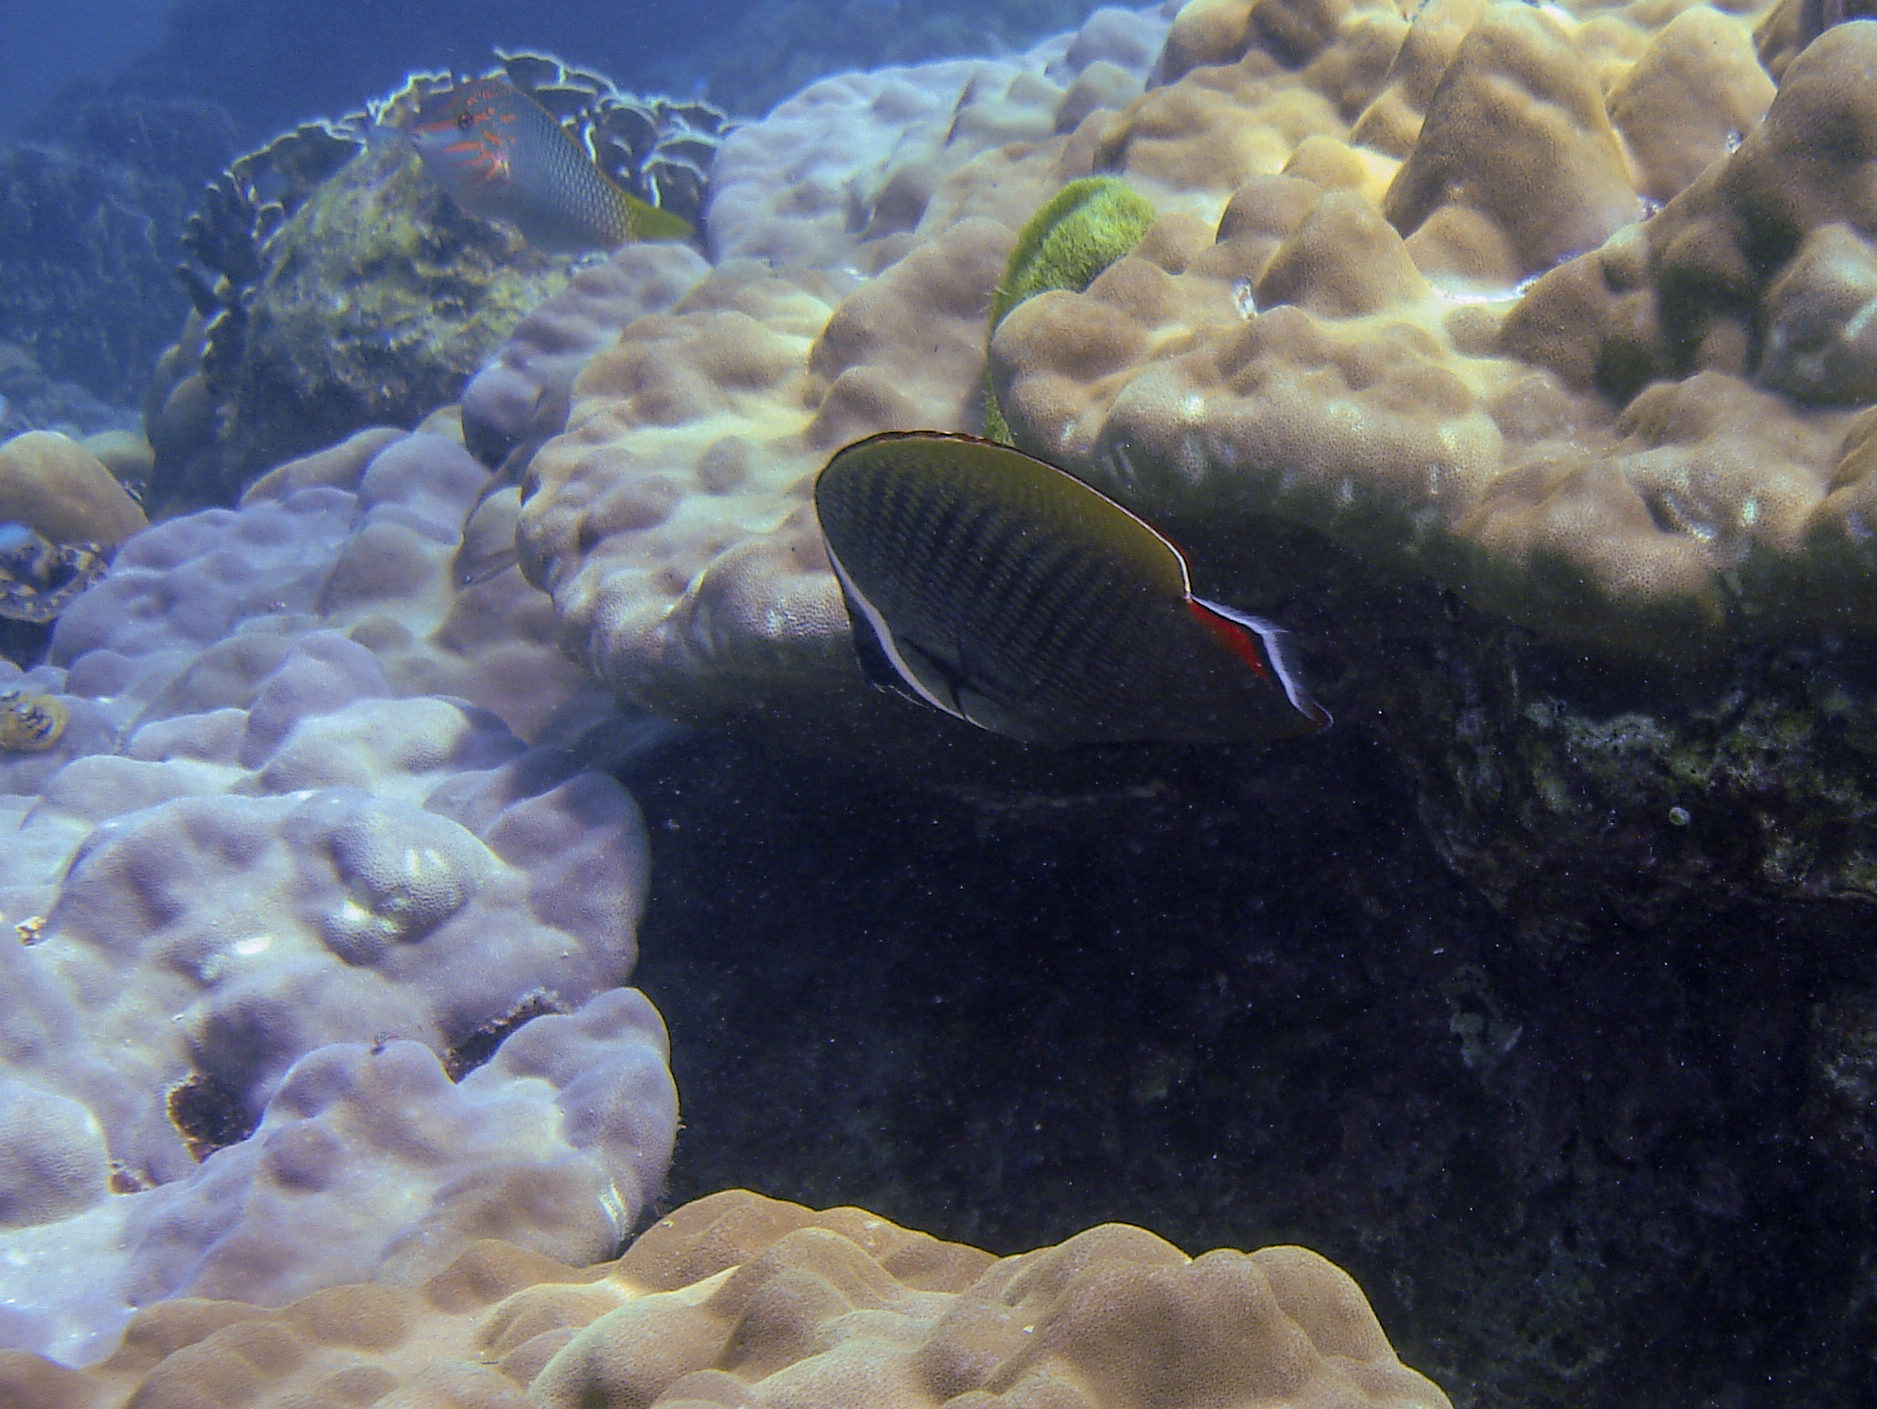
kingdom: Animalia
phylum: Chordata
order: Perciformes
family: Chaetodontidae
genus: Chaetodon
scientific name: Chaetodon collare
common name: Redtail butterflyfish
